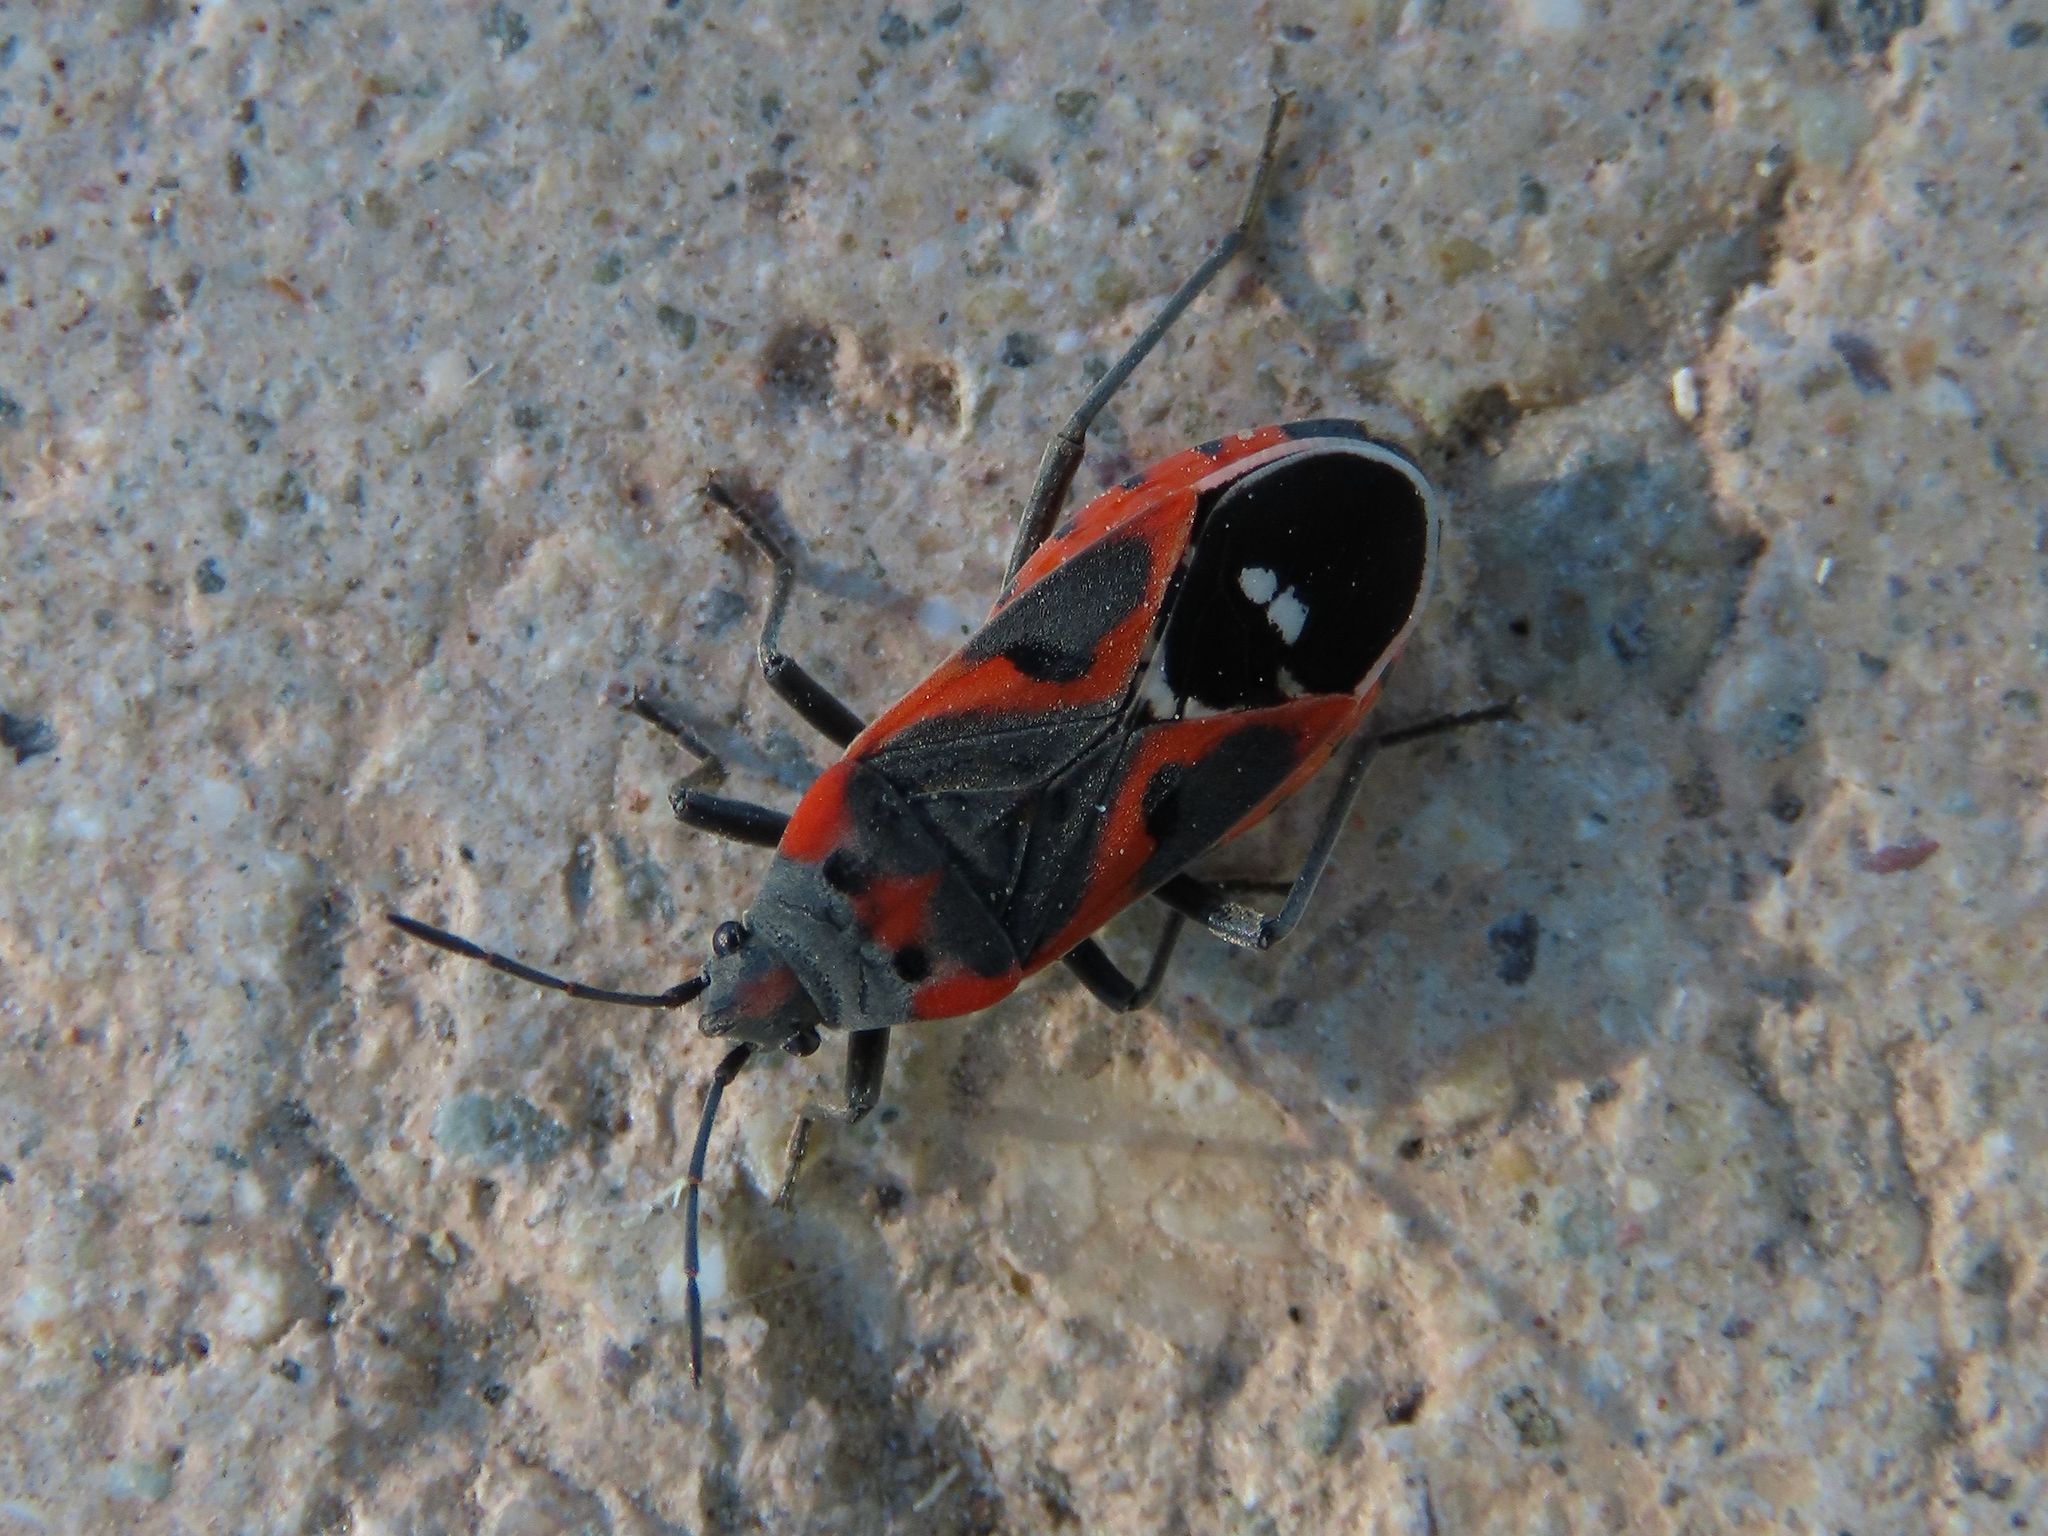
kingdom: Animalia
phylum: Arthropoda
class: Insecta
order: Hemiptera
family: Lygaeidae
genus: Lygaeus
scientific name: Lygaeus kalmii
